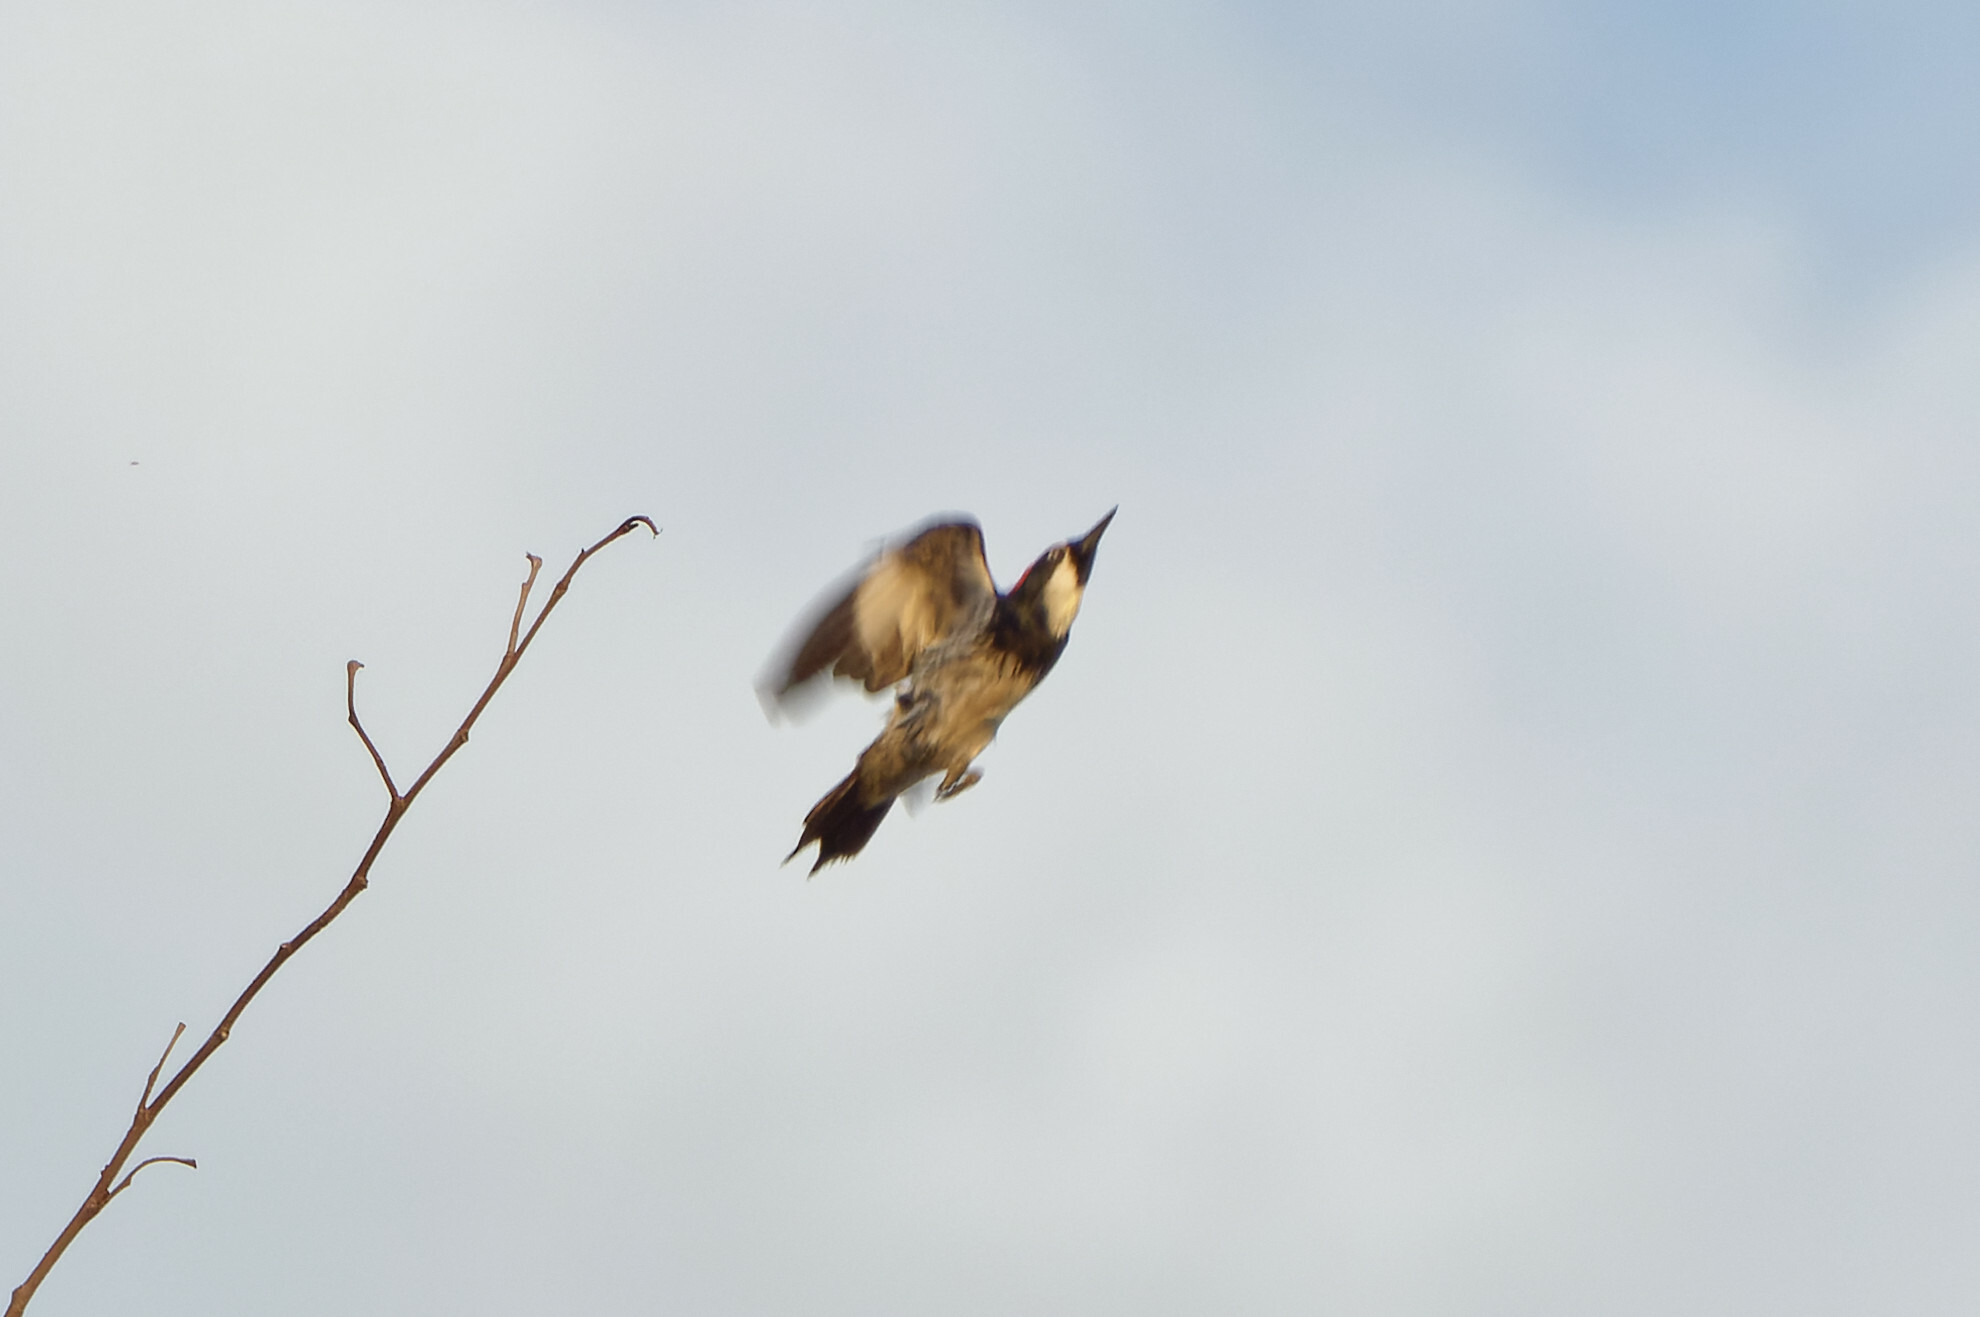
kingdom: Animalia
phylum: Chordata
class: Aves
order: Piciformes
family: Picidae
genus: Melanerpes
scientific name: Melanerpes formicivorus
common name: Acorn woodpecker
